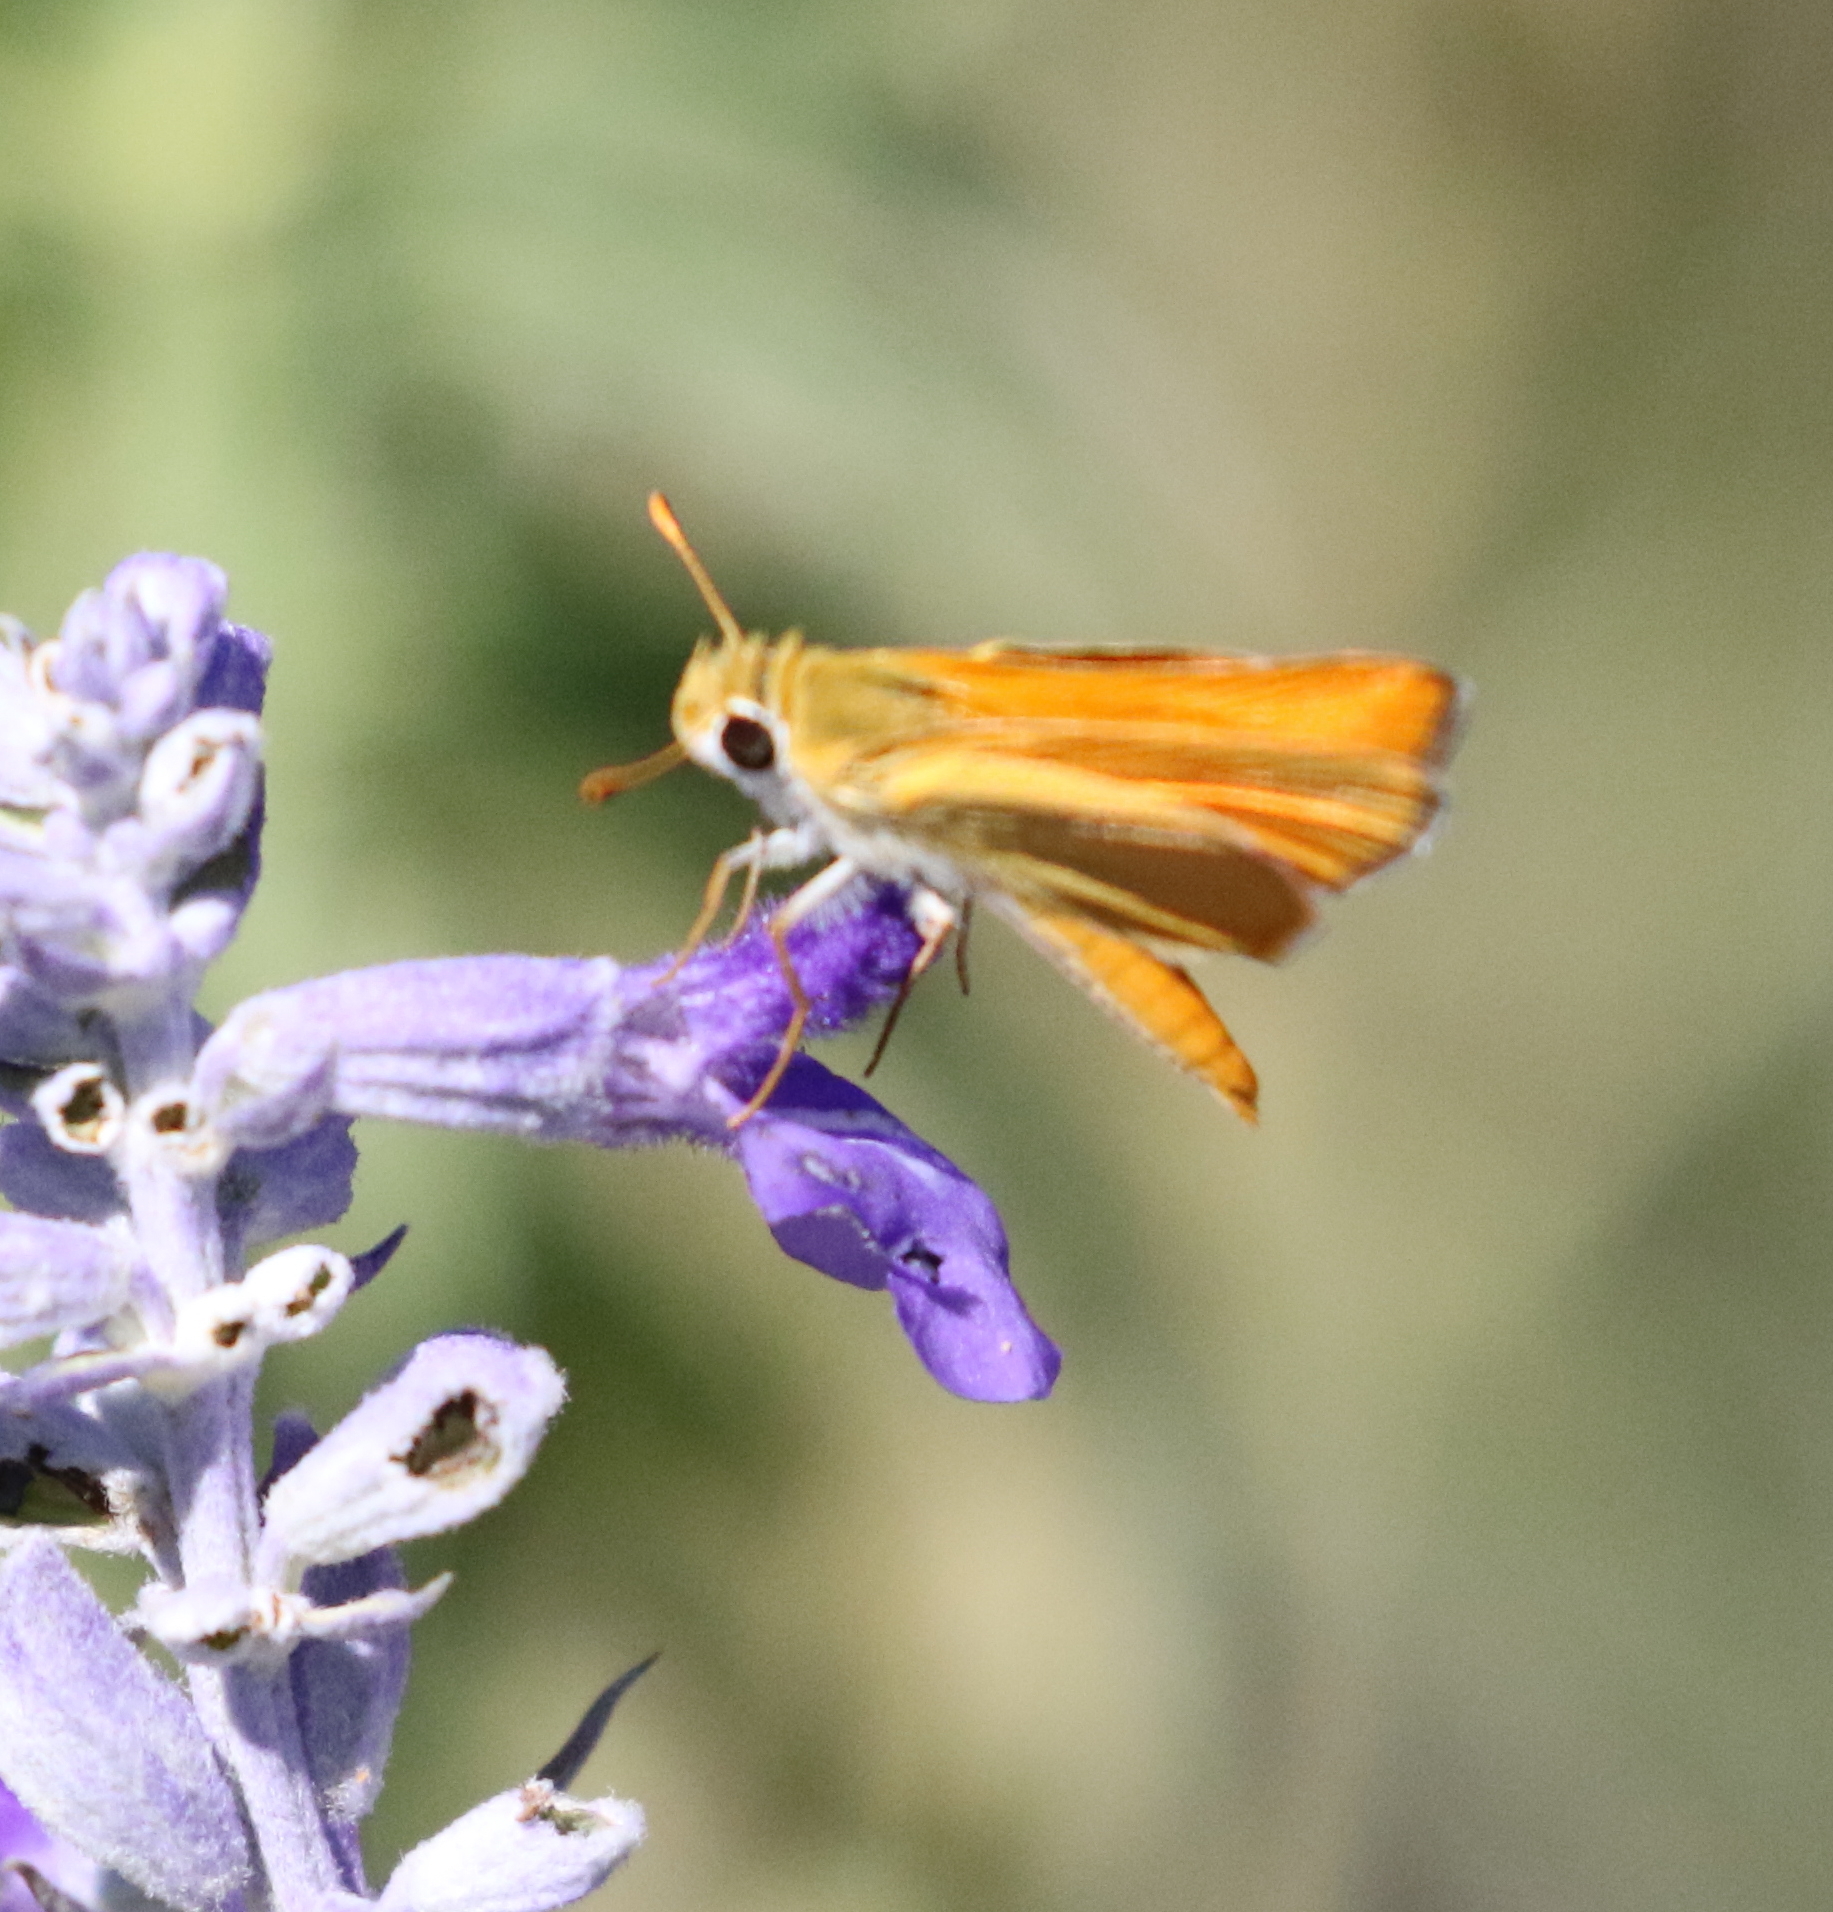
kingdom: Animalia
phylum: Arthropoda
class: Insecta
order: Lepidoptera
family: Hesperiidae
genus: Copaeodes
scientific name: Copaeodes aurantiaca
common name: Orange skipperling
